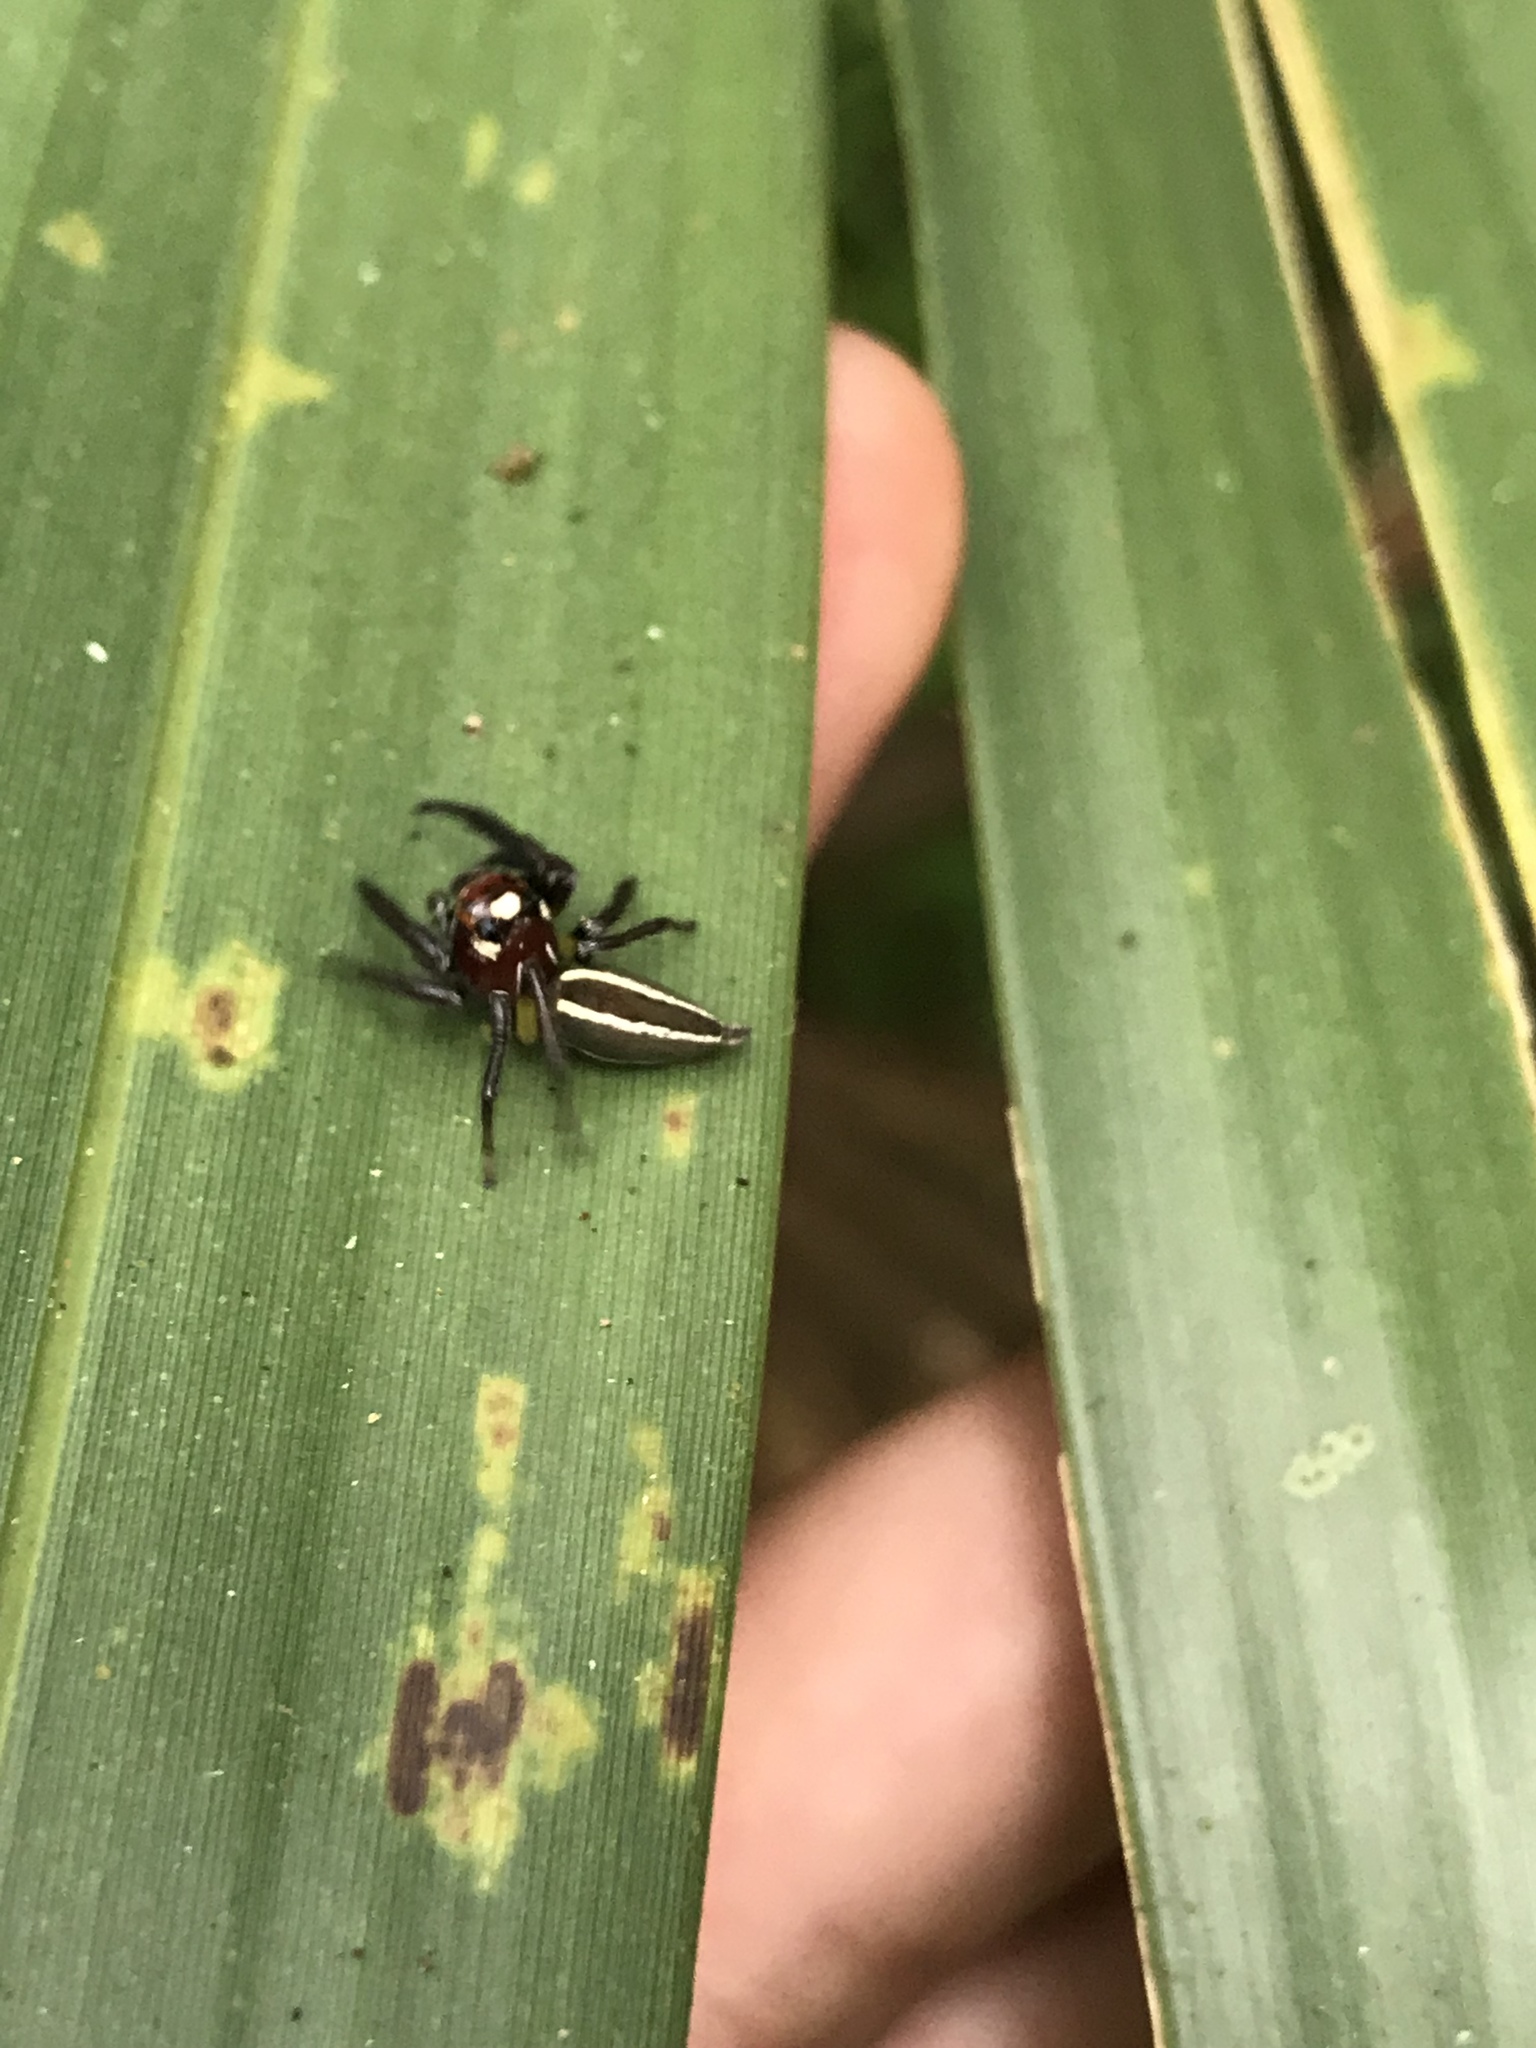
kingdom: Animalia
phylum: Arthropoda
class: Arachnida
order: Araneae
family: Salticidae
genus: Colonus
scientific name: Colonus sylvanus
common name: Jumping spiders
